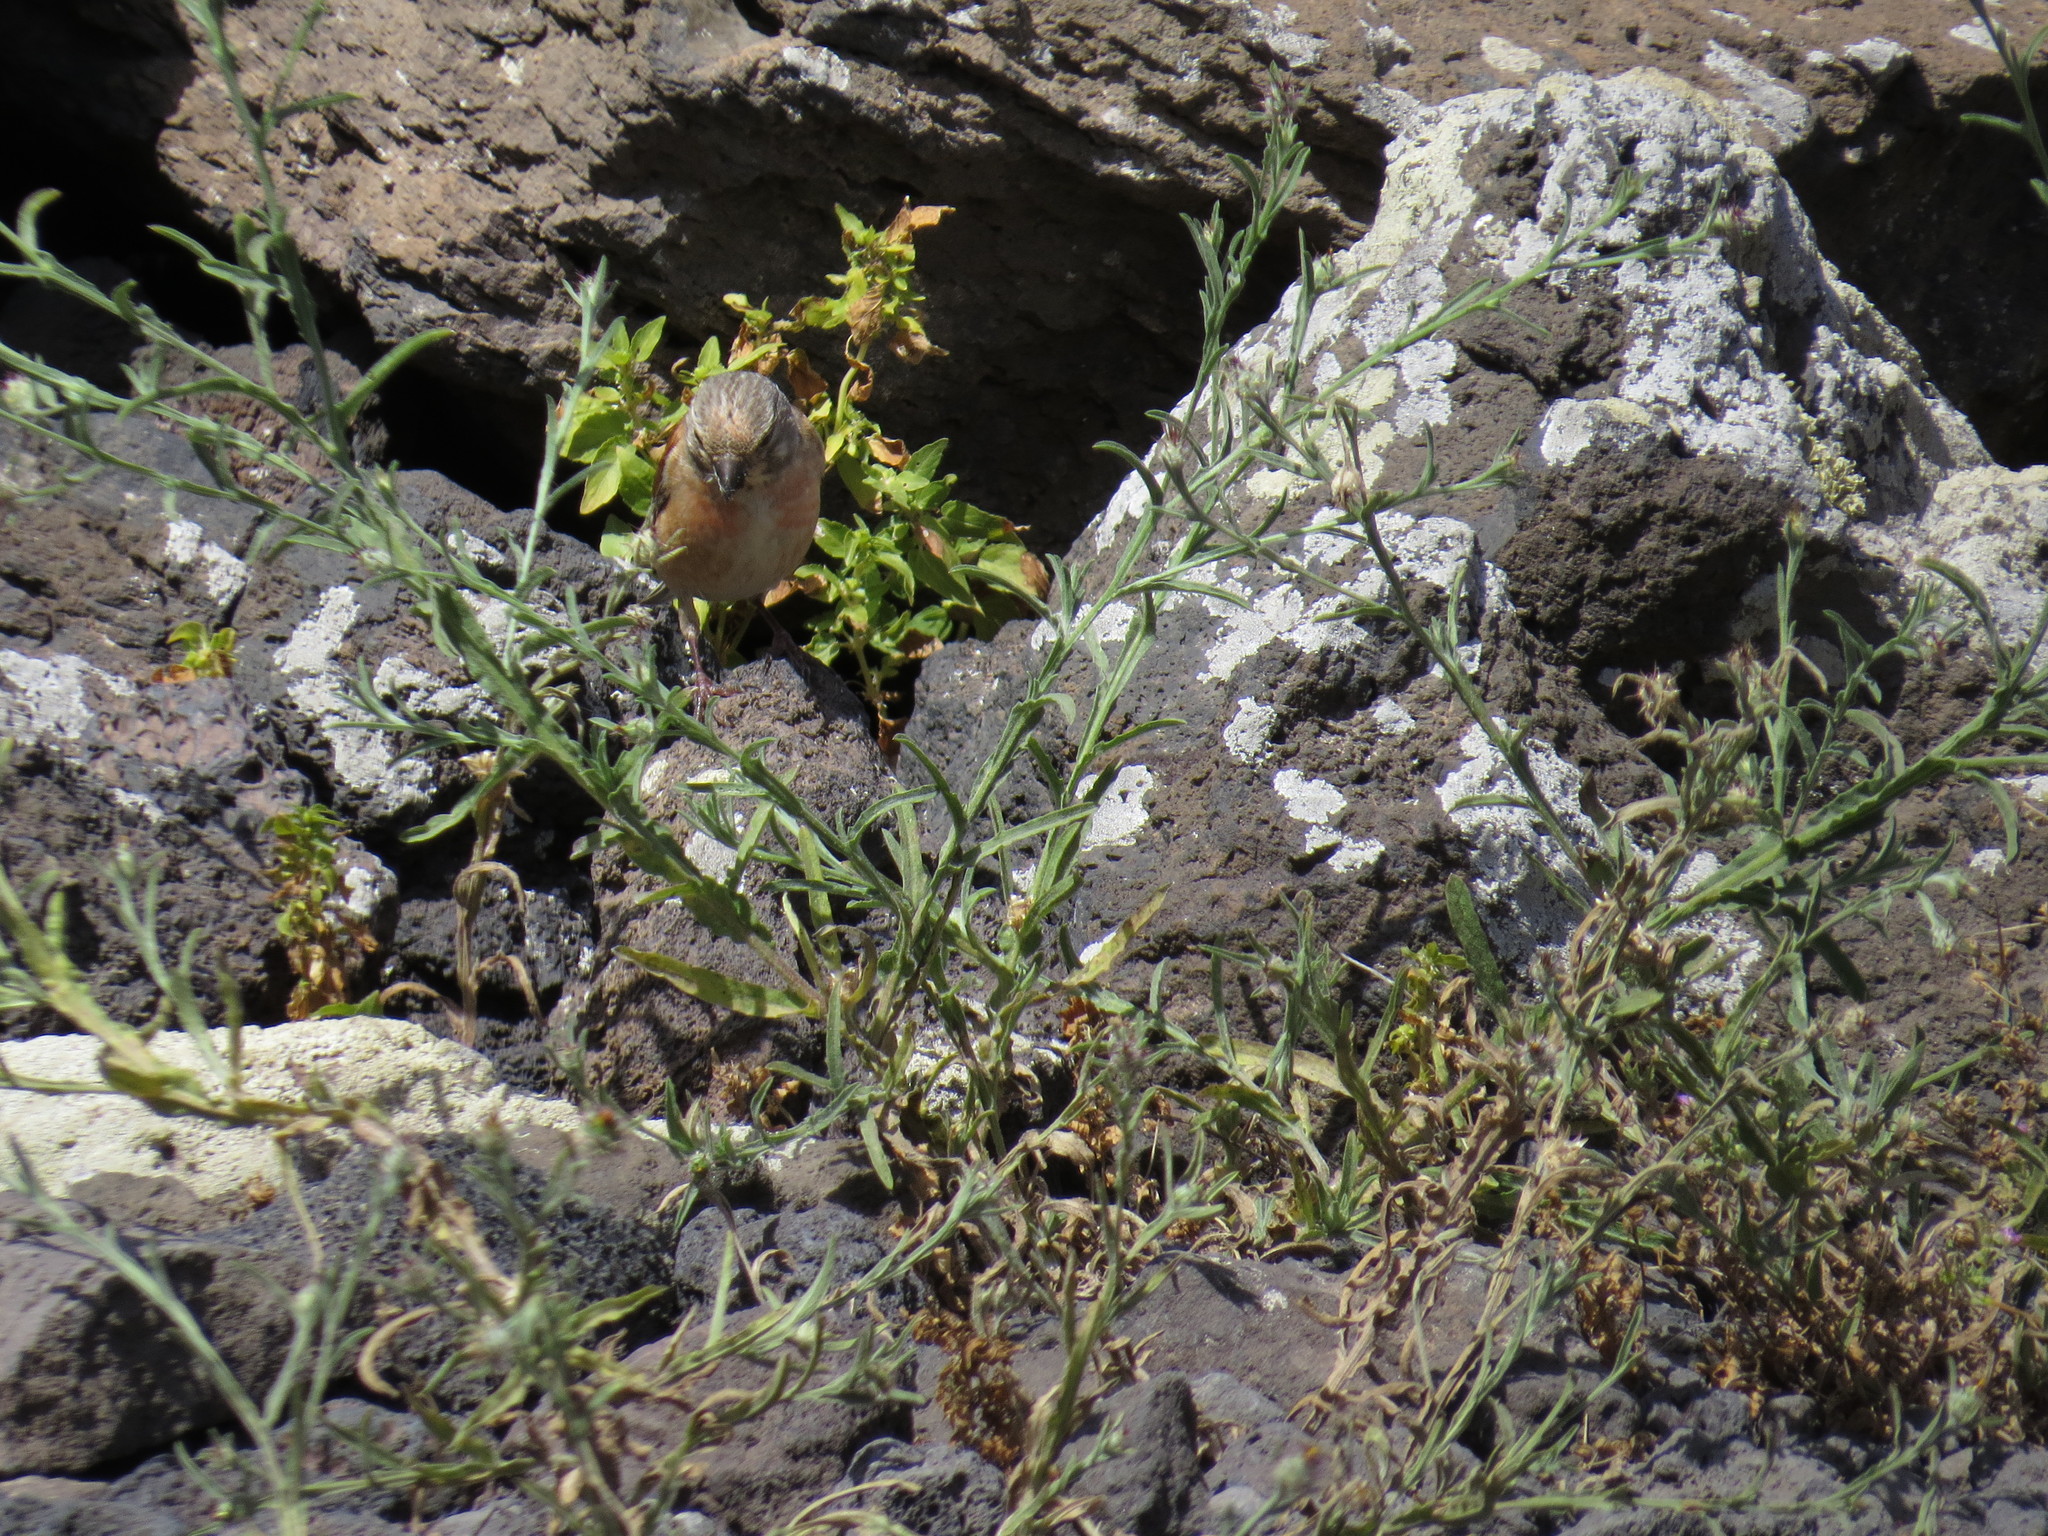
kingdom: Animalia
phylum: Chordata
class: Aves
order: Passeriformes
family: Fringillidae
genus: Linaria
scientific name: Linaria cannabina
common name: Common linnet
